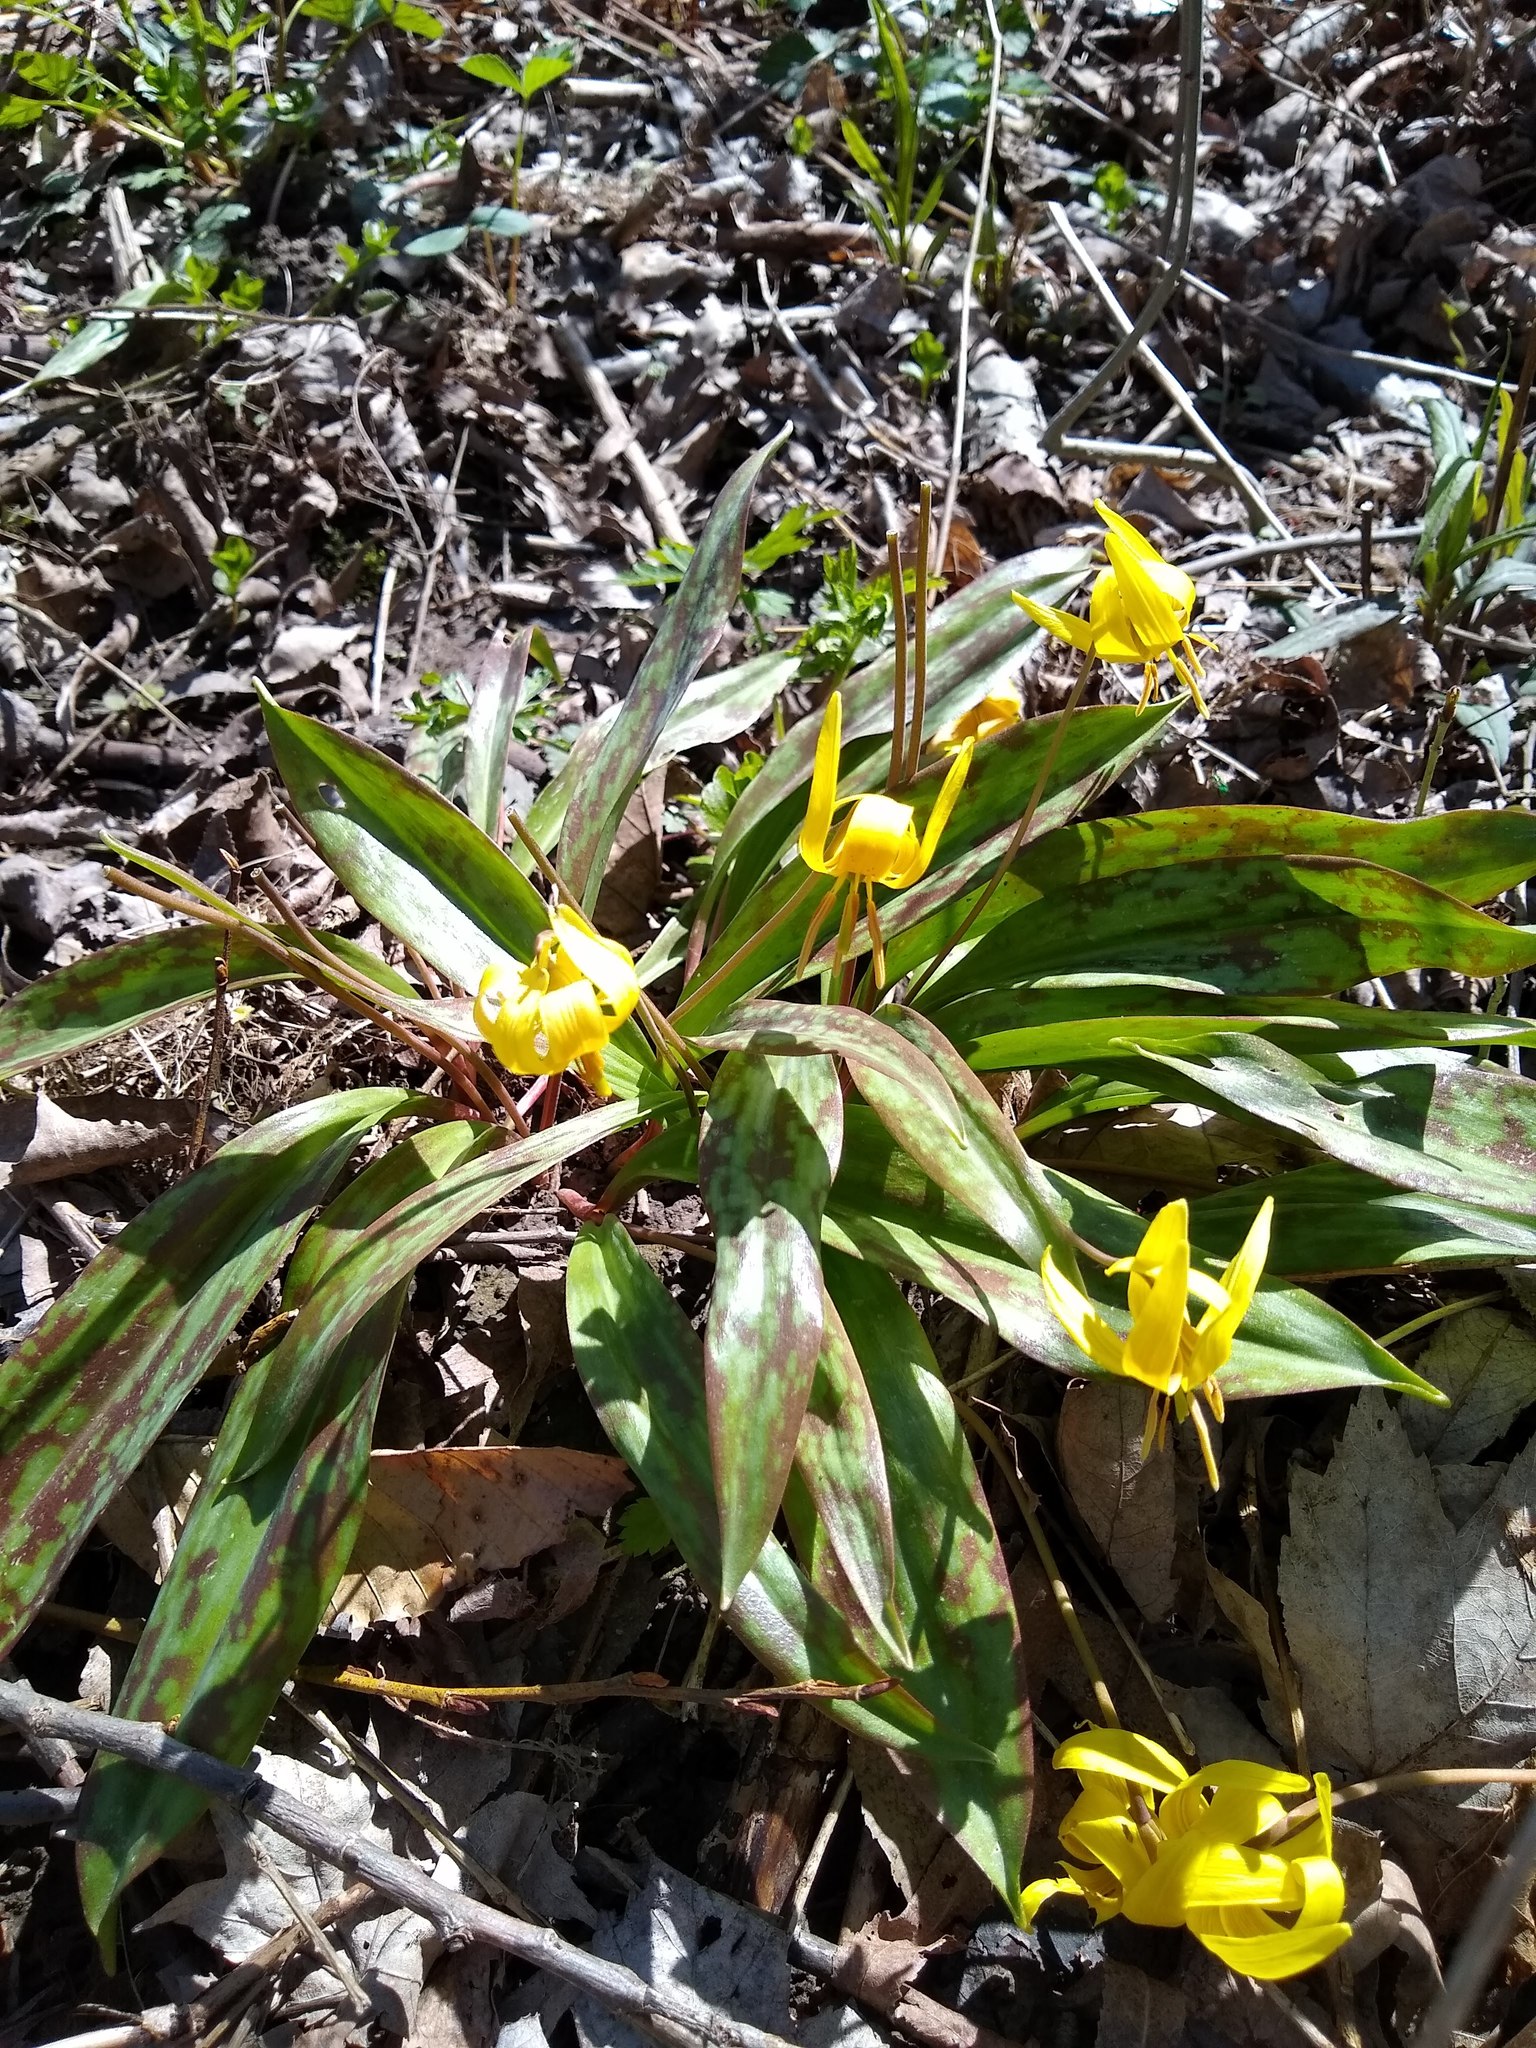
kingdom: Plantae
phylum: Tracheophyta
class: Liliopsida
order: Liliales
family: Liliaceae
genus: Erythronium
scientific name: Erythronium americanum
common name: Yellow adder's-tongue
